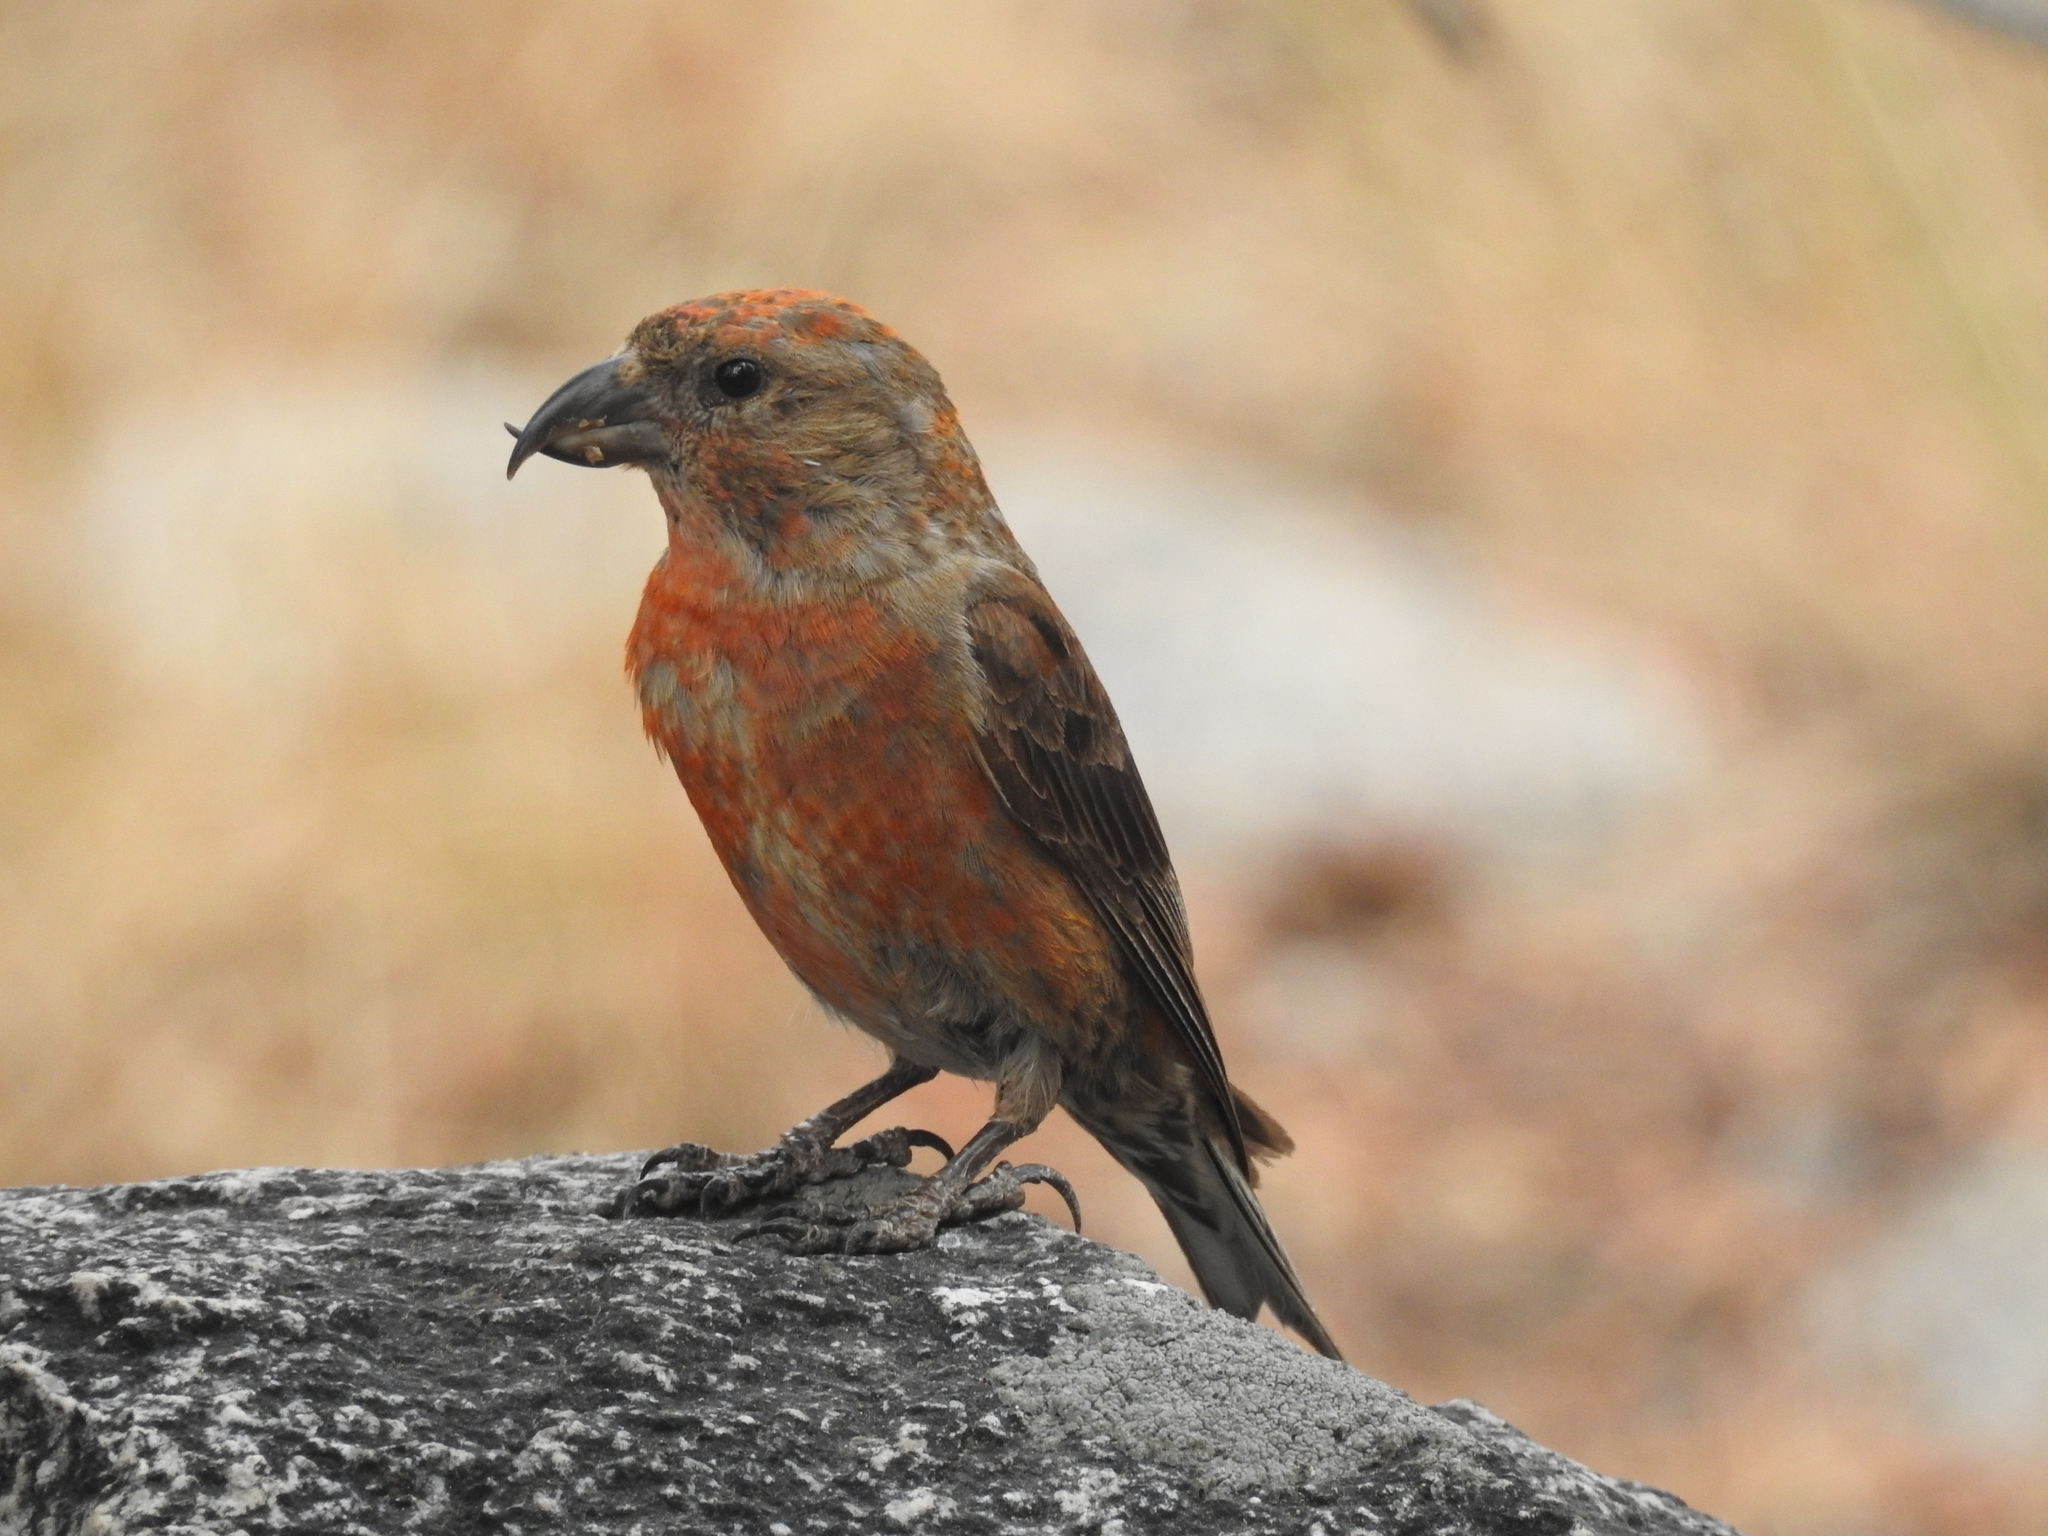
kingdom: Animalia
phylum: Chordata
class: Aves
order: Passeriformes
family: Fringillidae
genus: Loxia
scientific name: Loxia curvirostra
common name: Red crossbill
